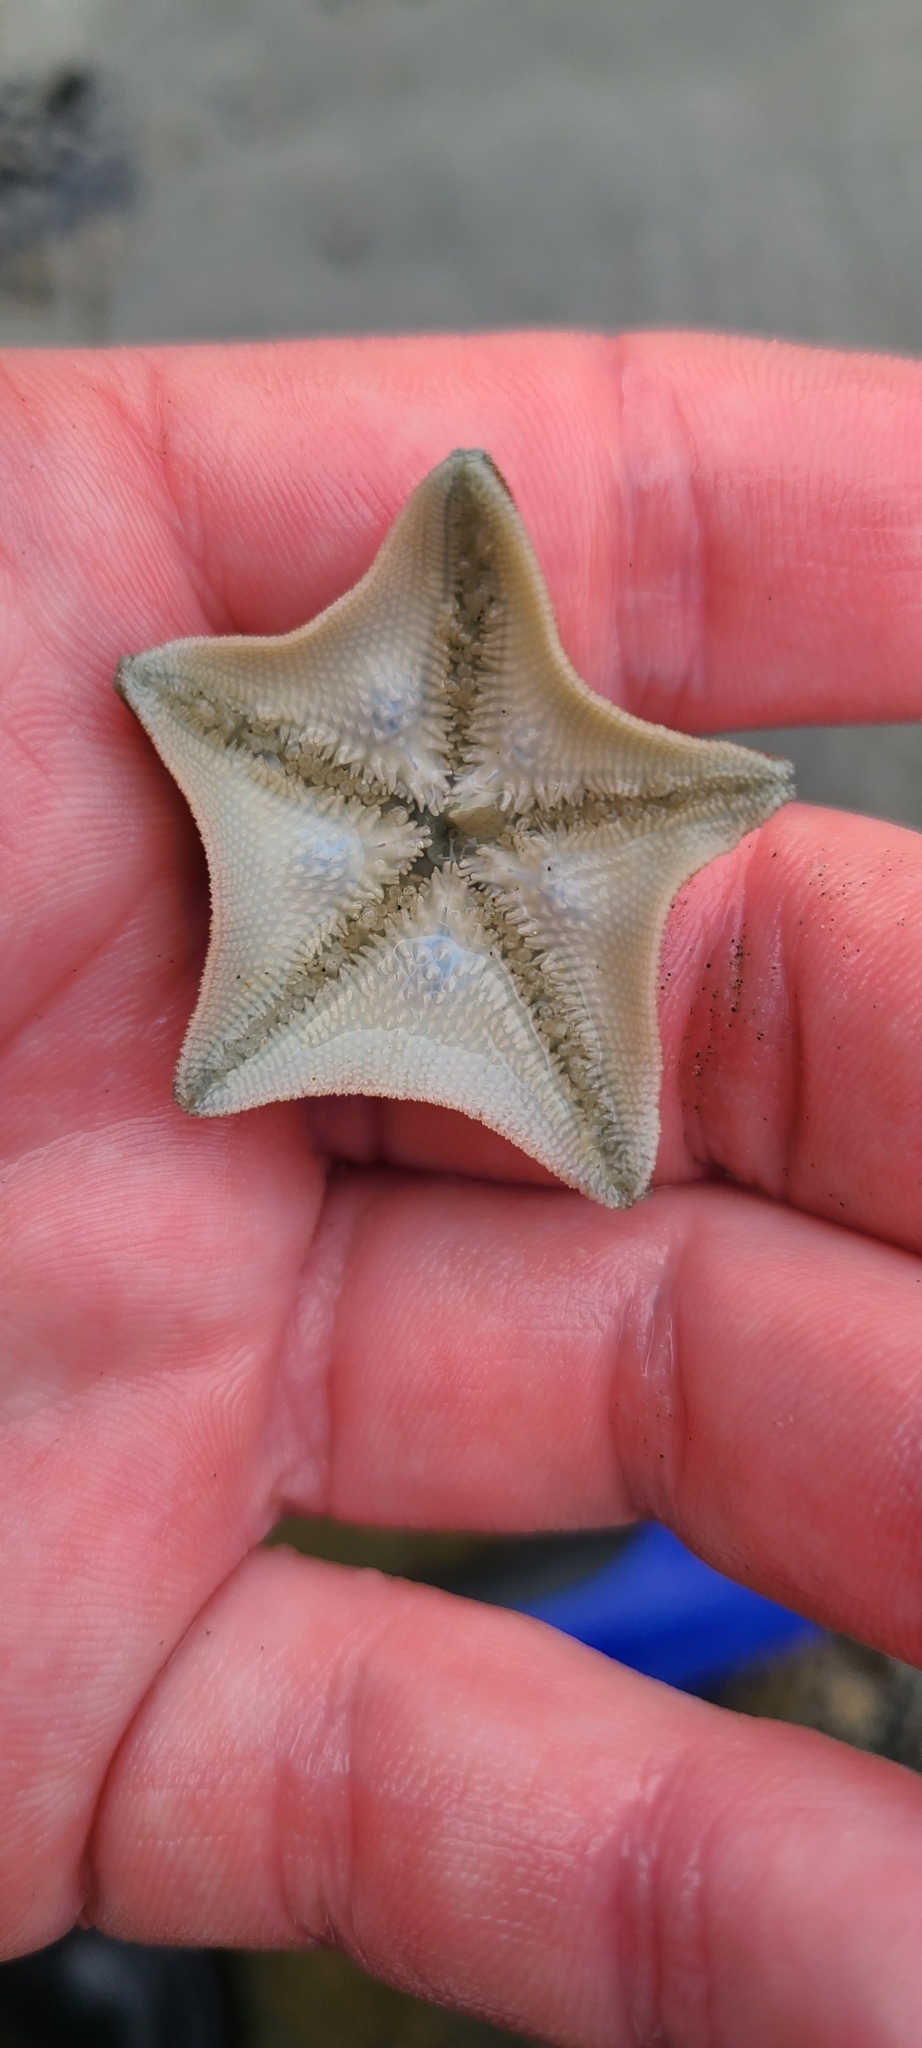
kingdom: Animalia
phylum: Echinodermata
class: Asteroidea
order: Valvatida
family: Asterinidae
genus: Patiriella
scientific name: Patiriella regularis
